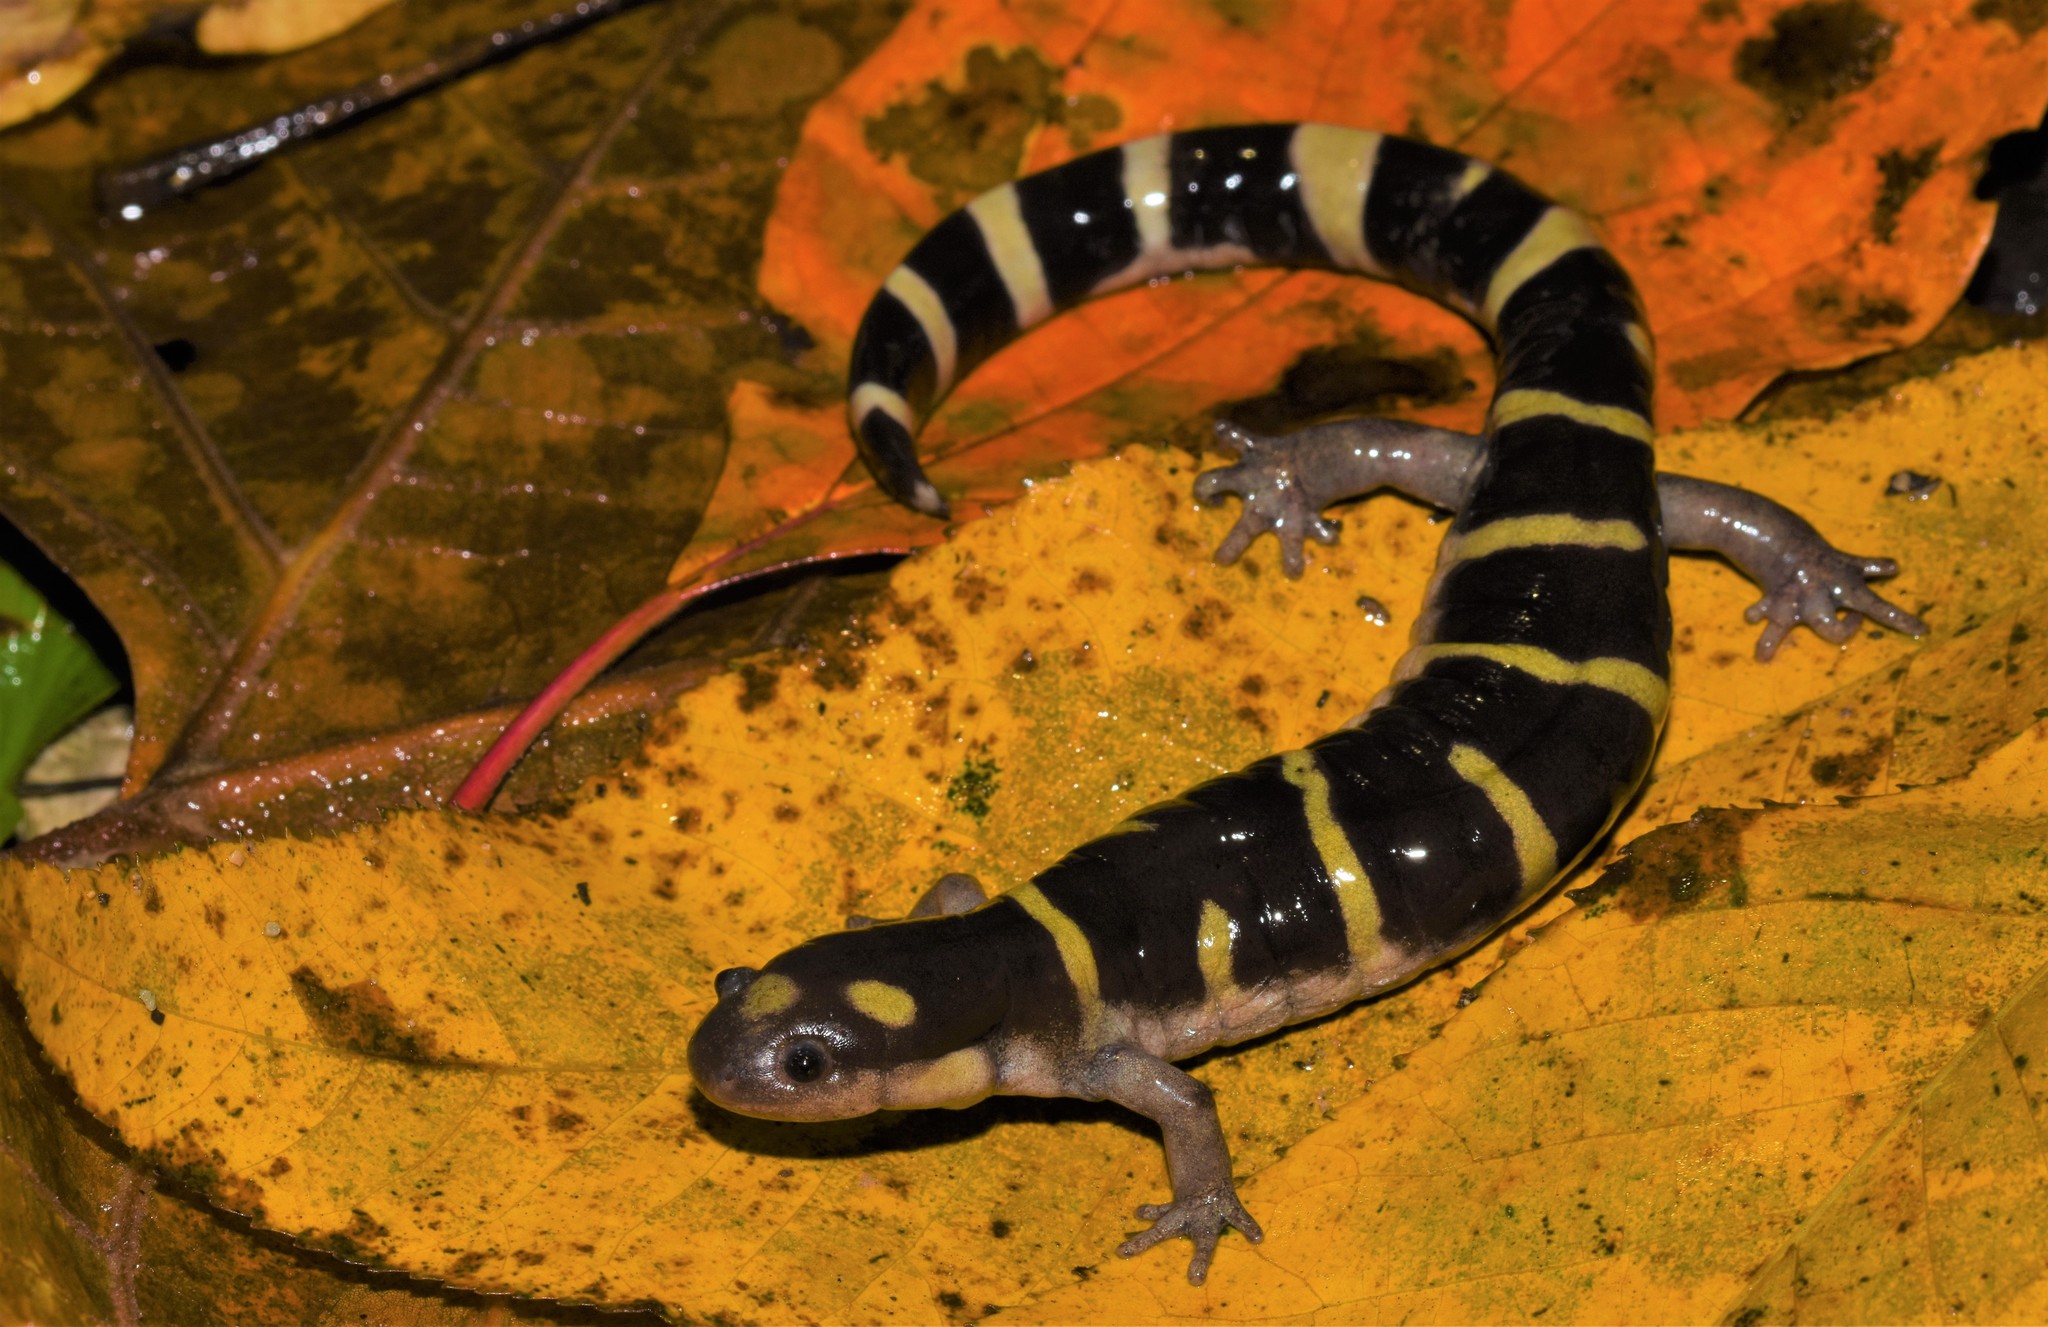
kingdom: Animalia
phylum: Chordata
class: Amphibia
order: Caudata
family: Ambystomatidae
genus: Ambystoma
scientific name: Ambystoma annulatum
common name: Ringed salamander
